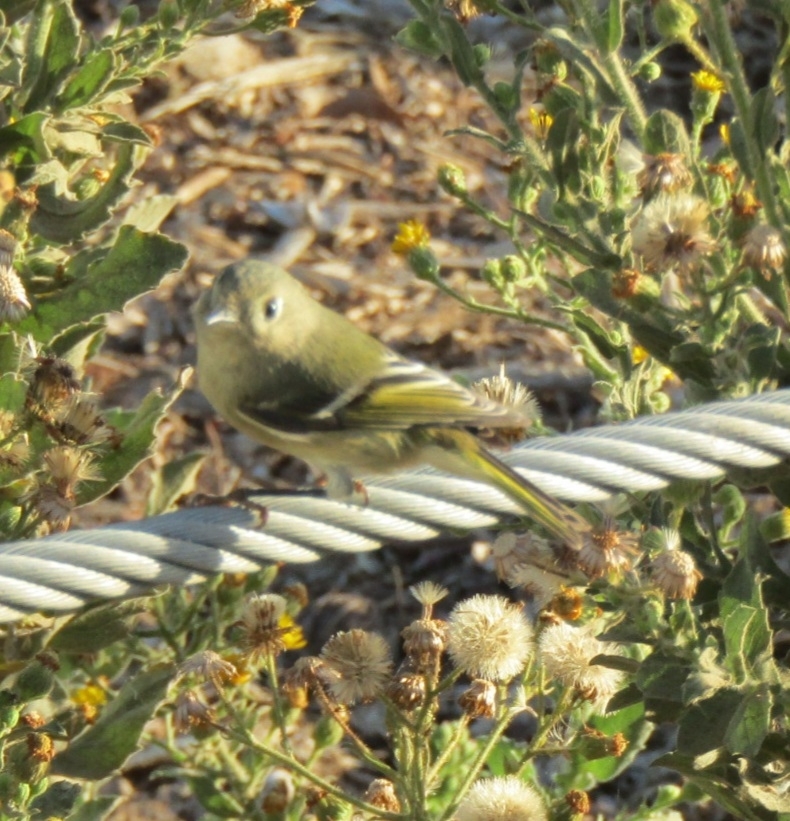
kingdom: Animalia
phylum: Chordata
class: Aves
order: Passeriformes
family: Regulidae
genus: Regulus
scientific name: Regulus calendula
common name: Ruby-crowned kinglet
